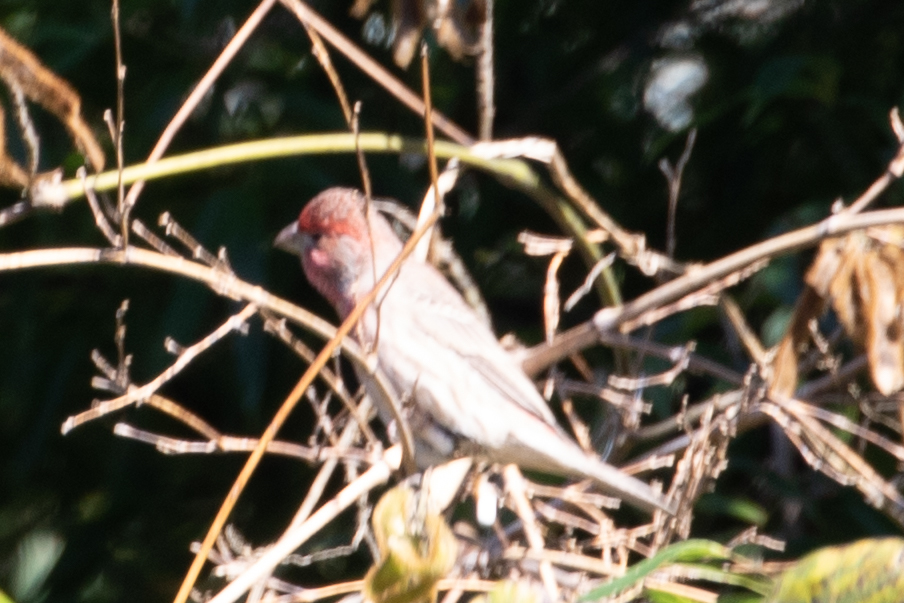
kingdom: Animalia
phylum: Chordata
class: Aves
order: Passeriformes
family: Fringillidae
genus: Haemorhous
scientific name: Haemorhous mexicanus
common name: House finch
